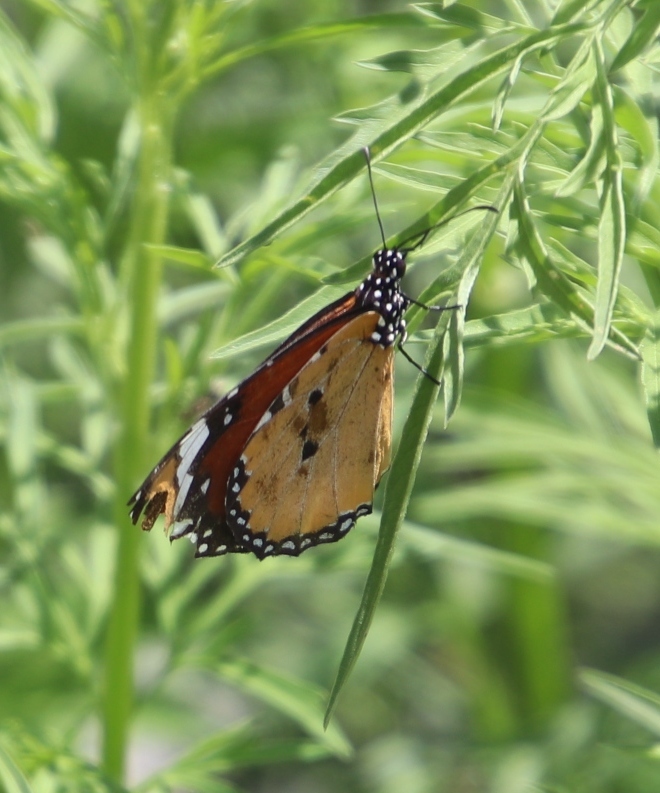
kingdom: Animalia
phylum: Arthropoda
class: Insecta
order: Lepidoptera
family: Nymphalidae
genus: Danaus
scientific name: Danaus chrysippus
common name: Plain tiger
